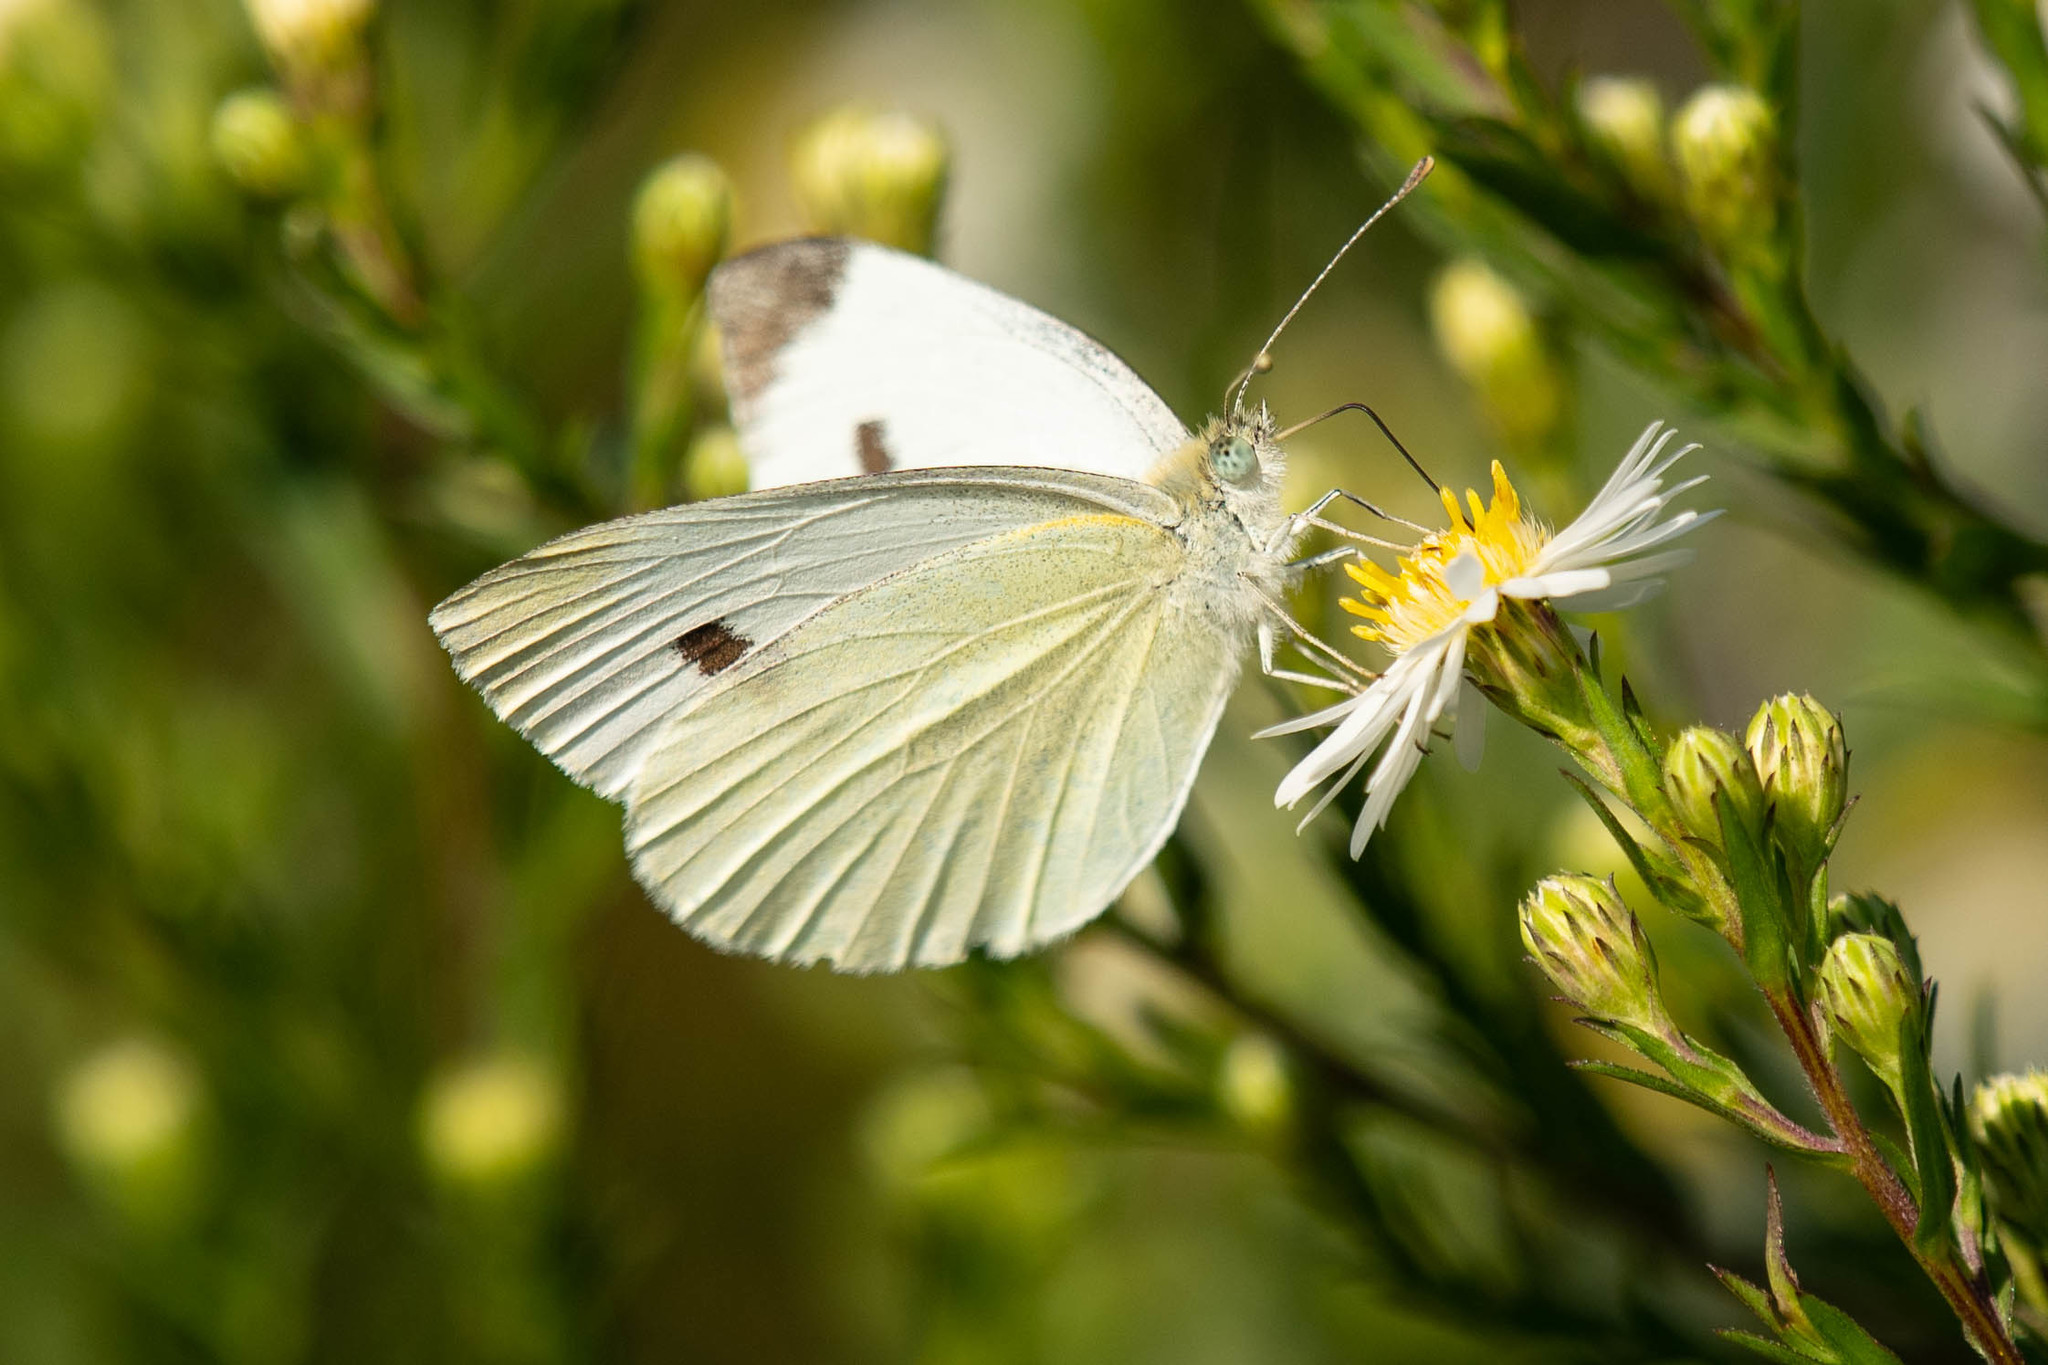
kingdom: Animalia
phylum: Arthropoda
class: Insecta
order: Lepidoptera
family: Pieridae
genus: Pieris
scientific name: Pieris rapae
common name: Small white
